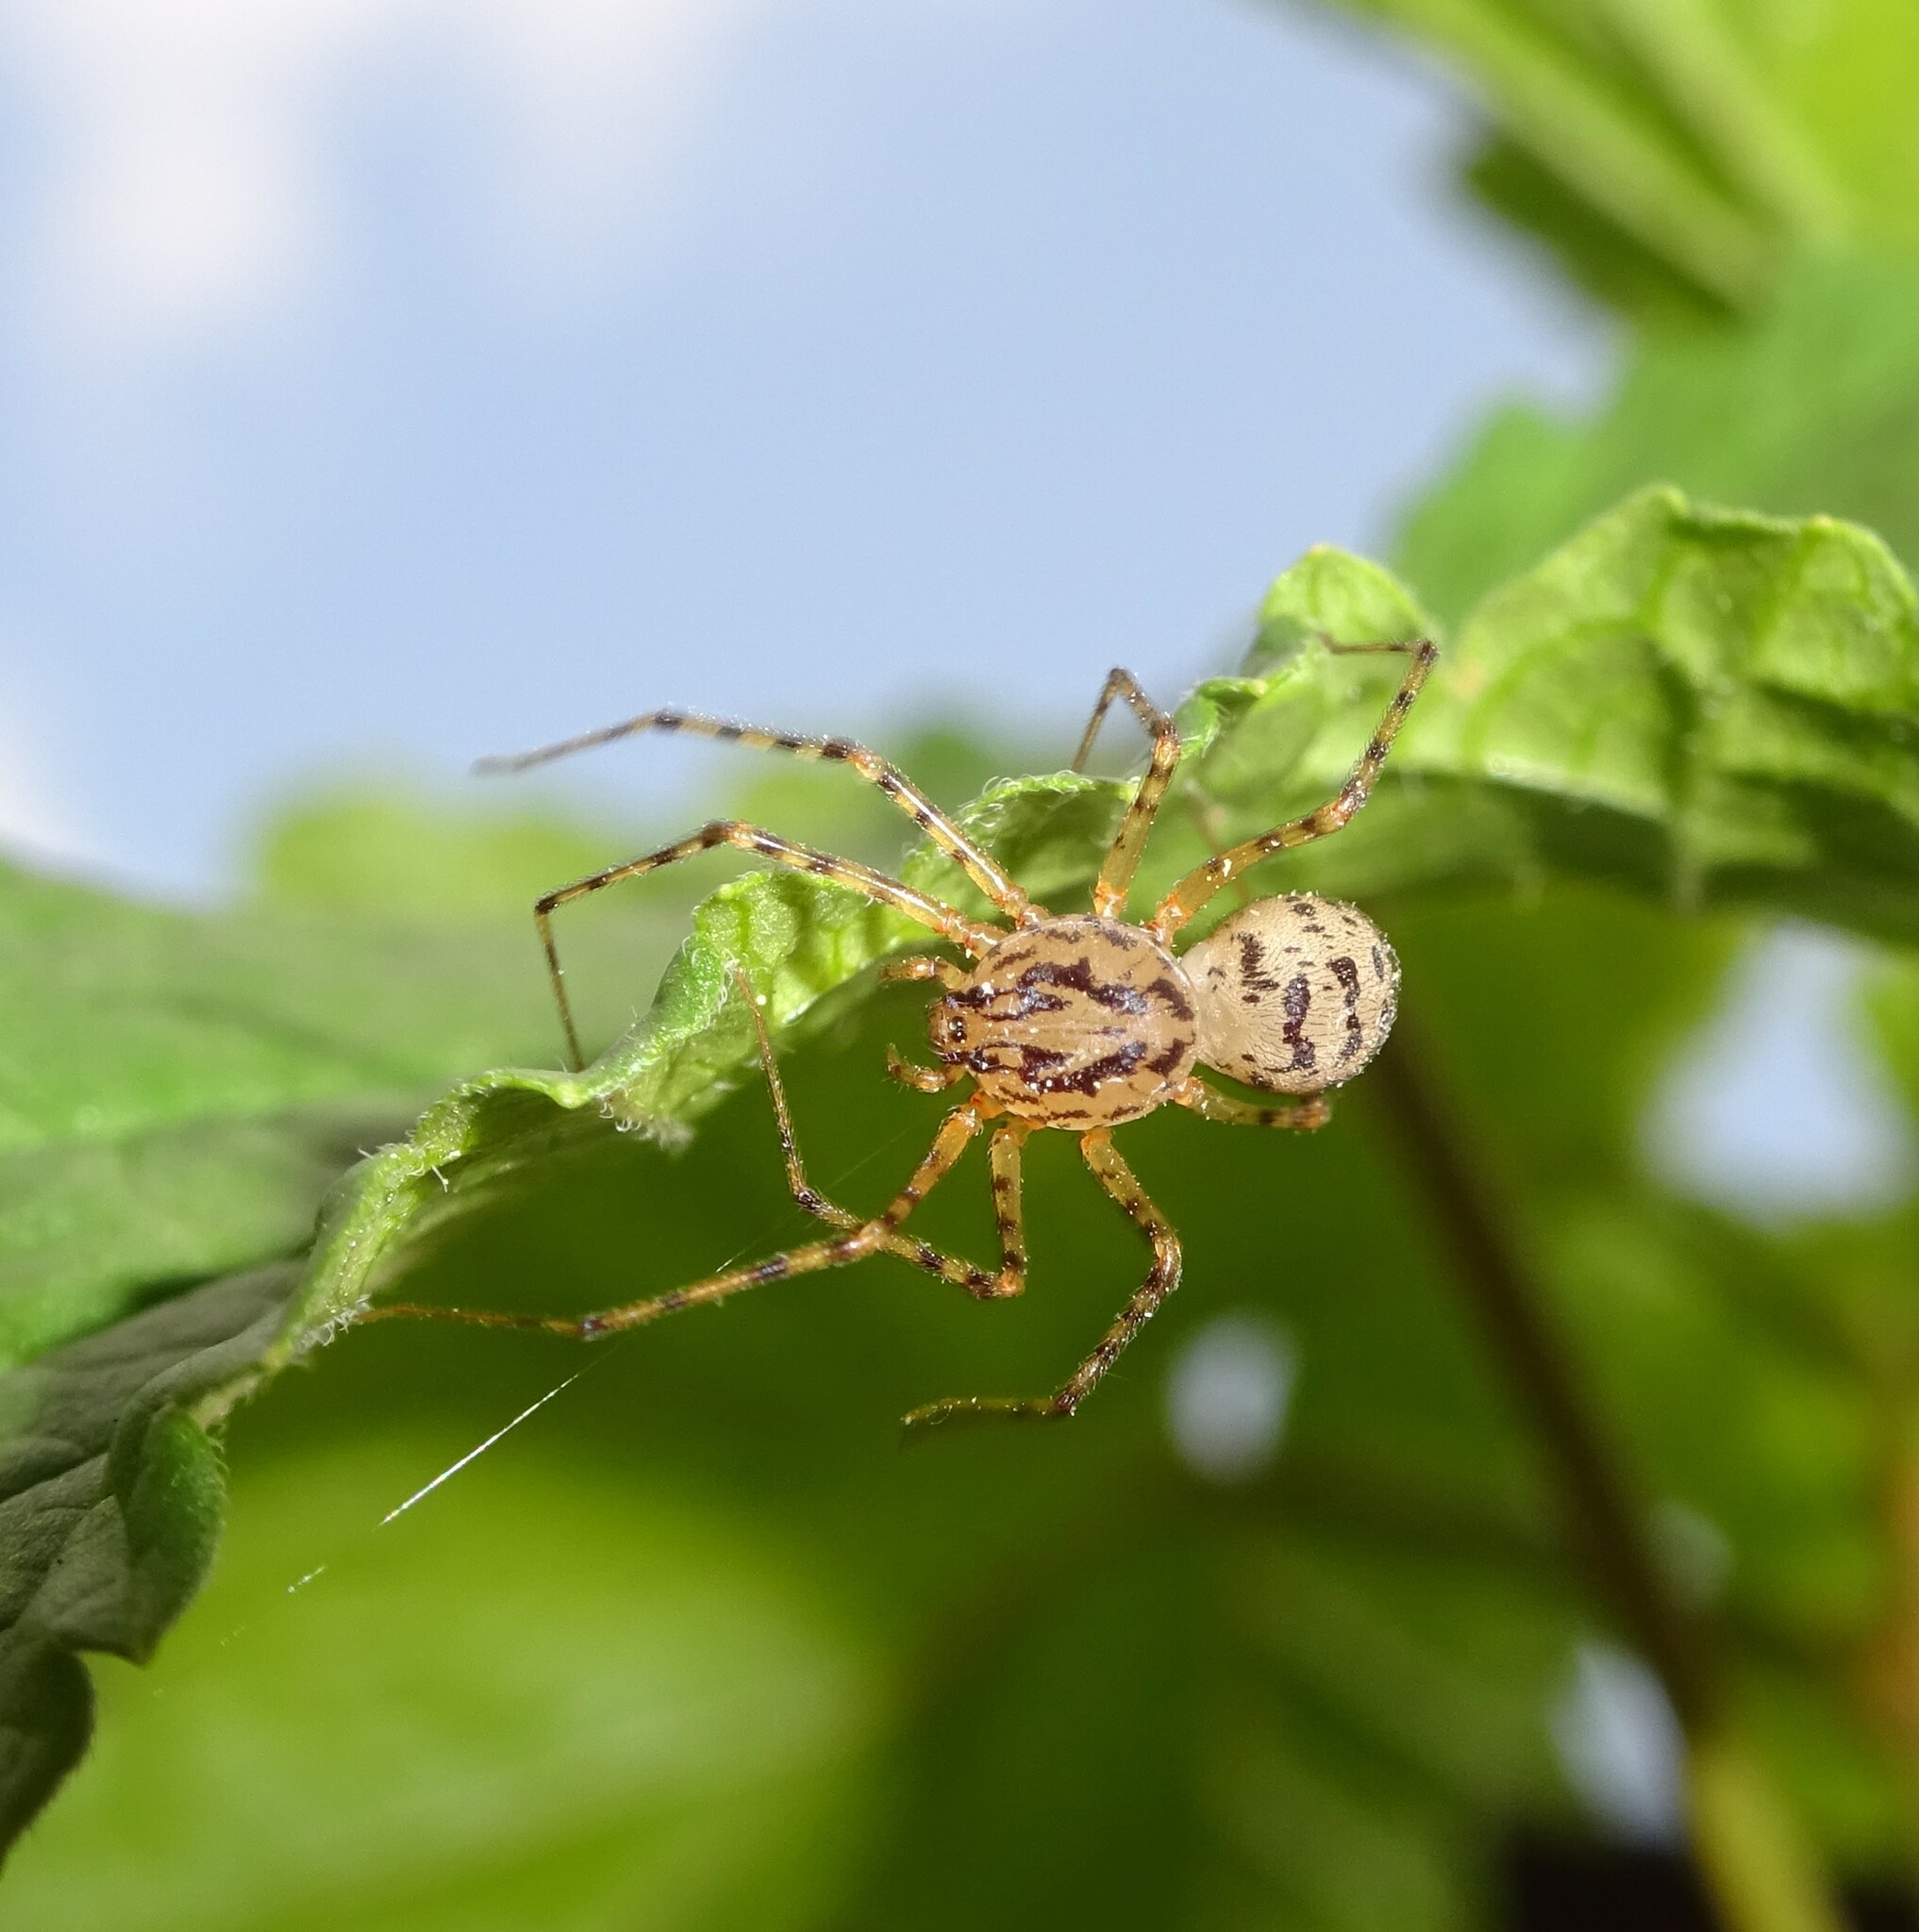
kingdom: Animalia
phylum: Arthropoda
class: Arachnida
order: Araneae
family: Scytodidae
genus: Scytodes
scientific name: Scytodes thoracica
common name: Spitting spider
